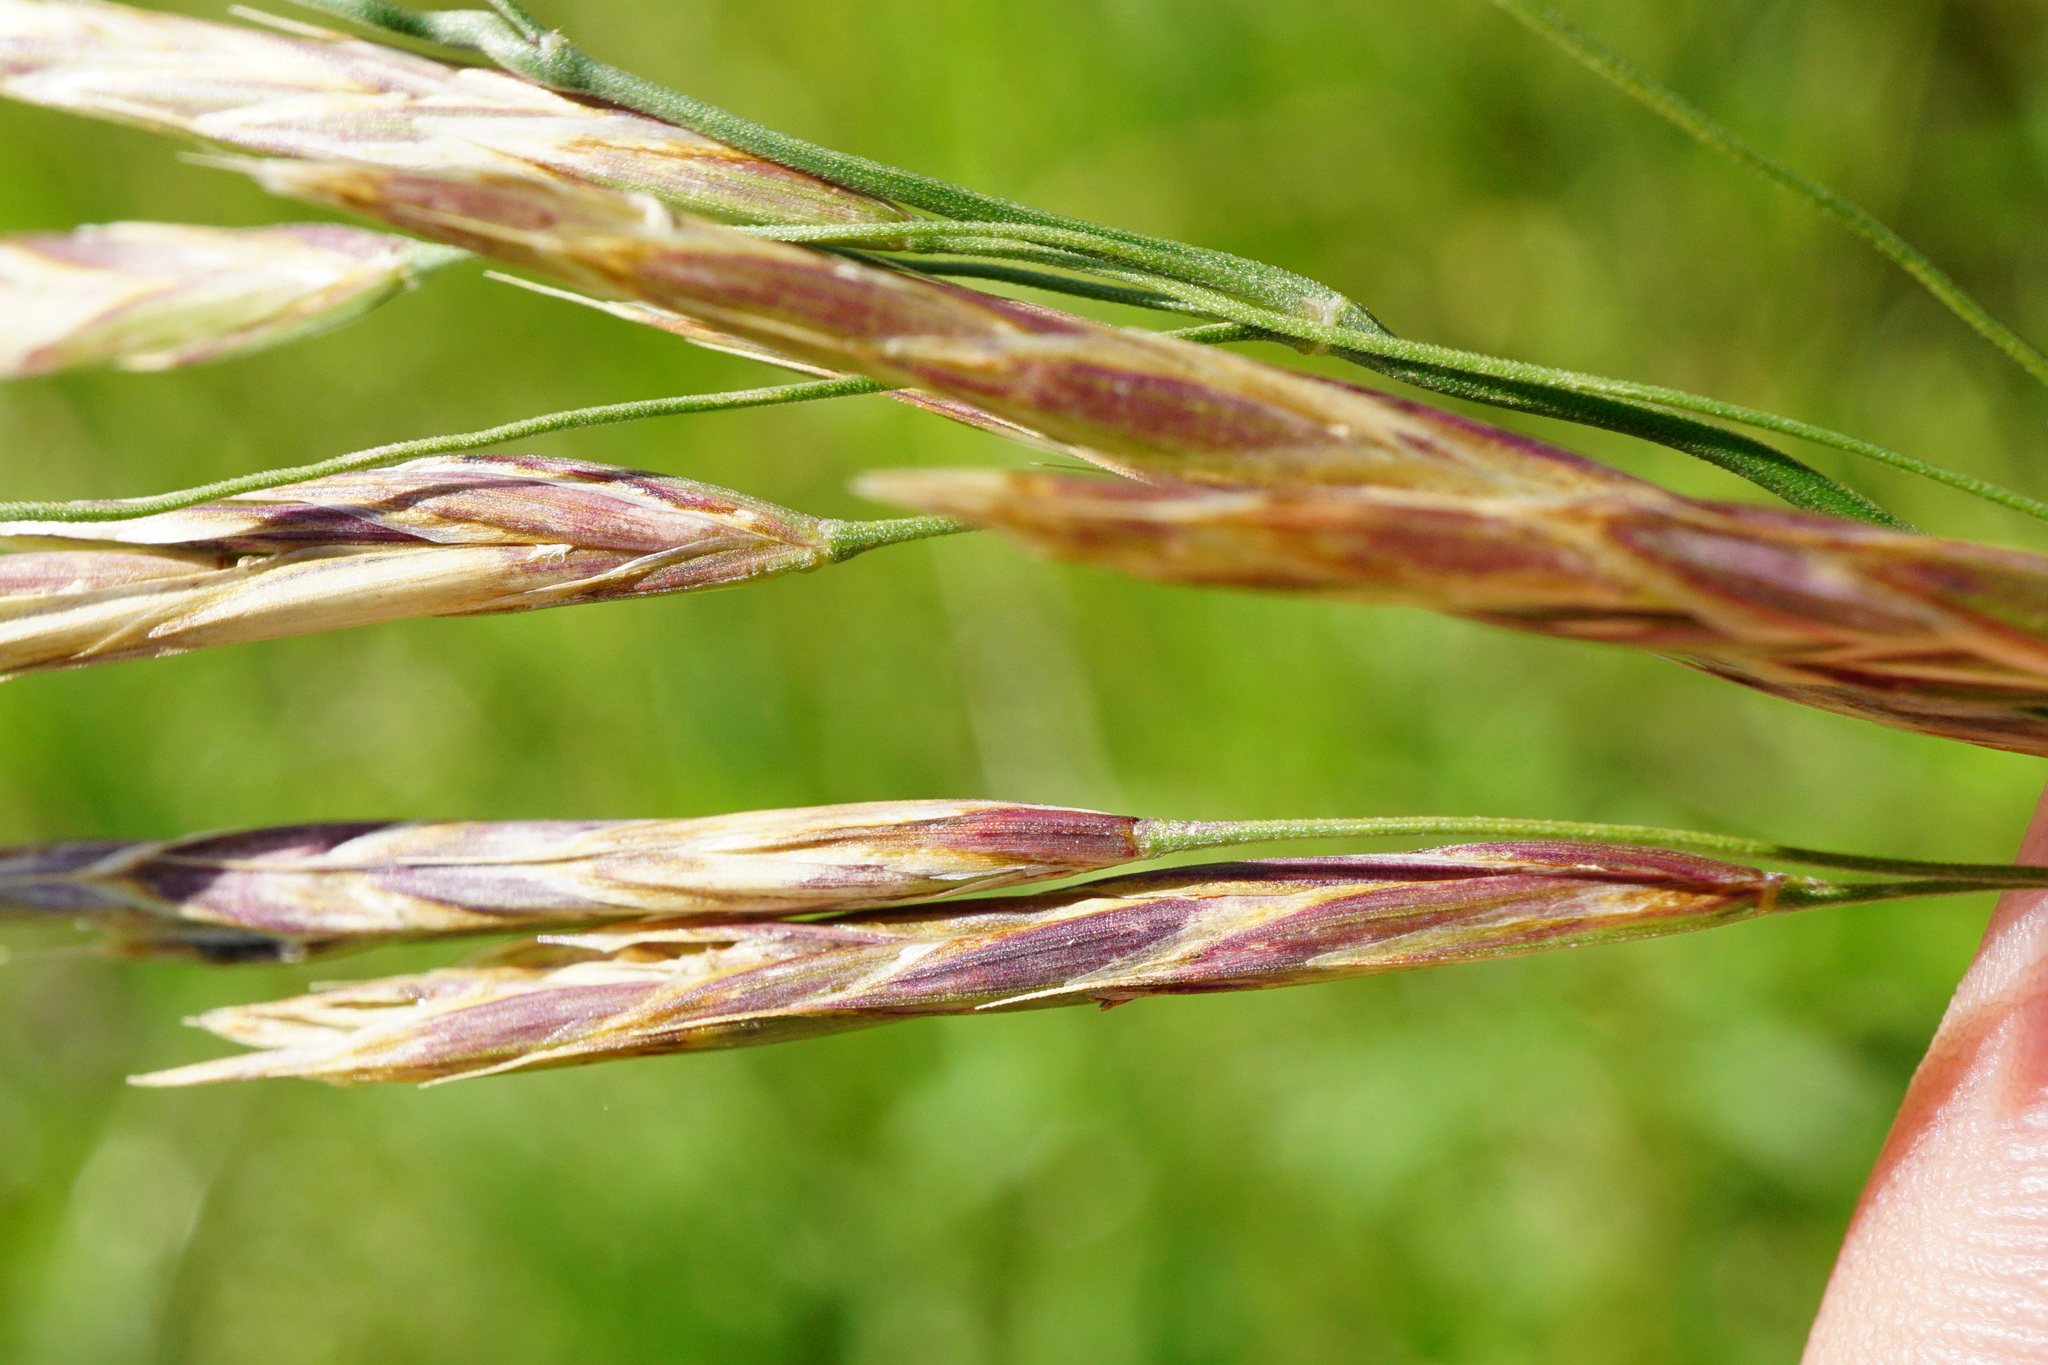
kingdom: Plantae
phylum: Tracheophyta
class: Liliopsida
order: Poales
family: Poaceae
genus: Bromus
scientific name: Bromus inermis
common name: Smooth brome
